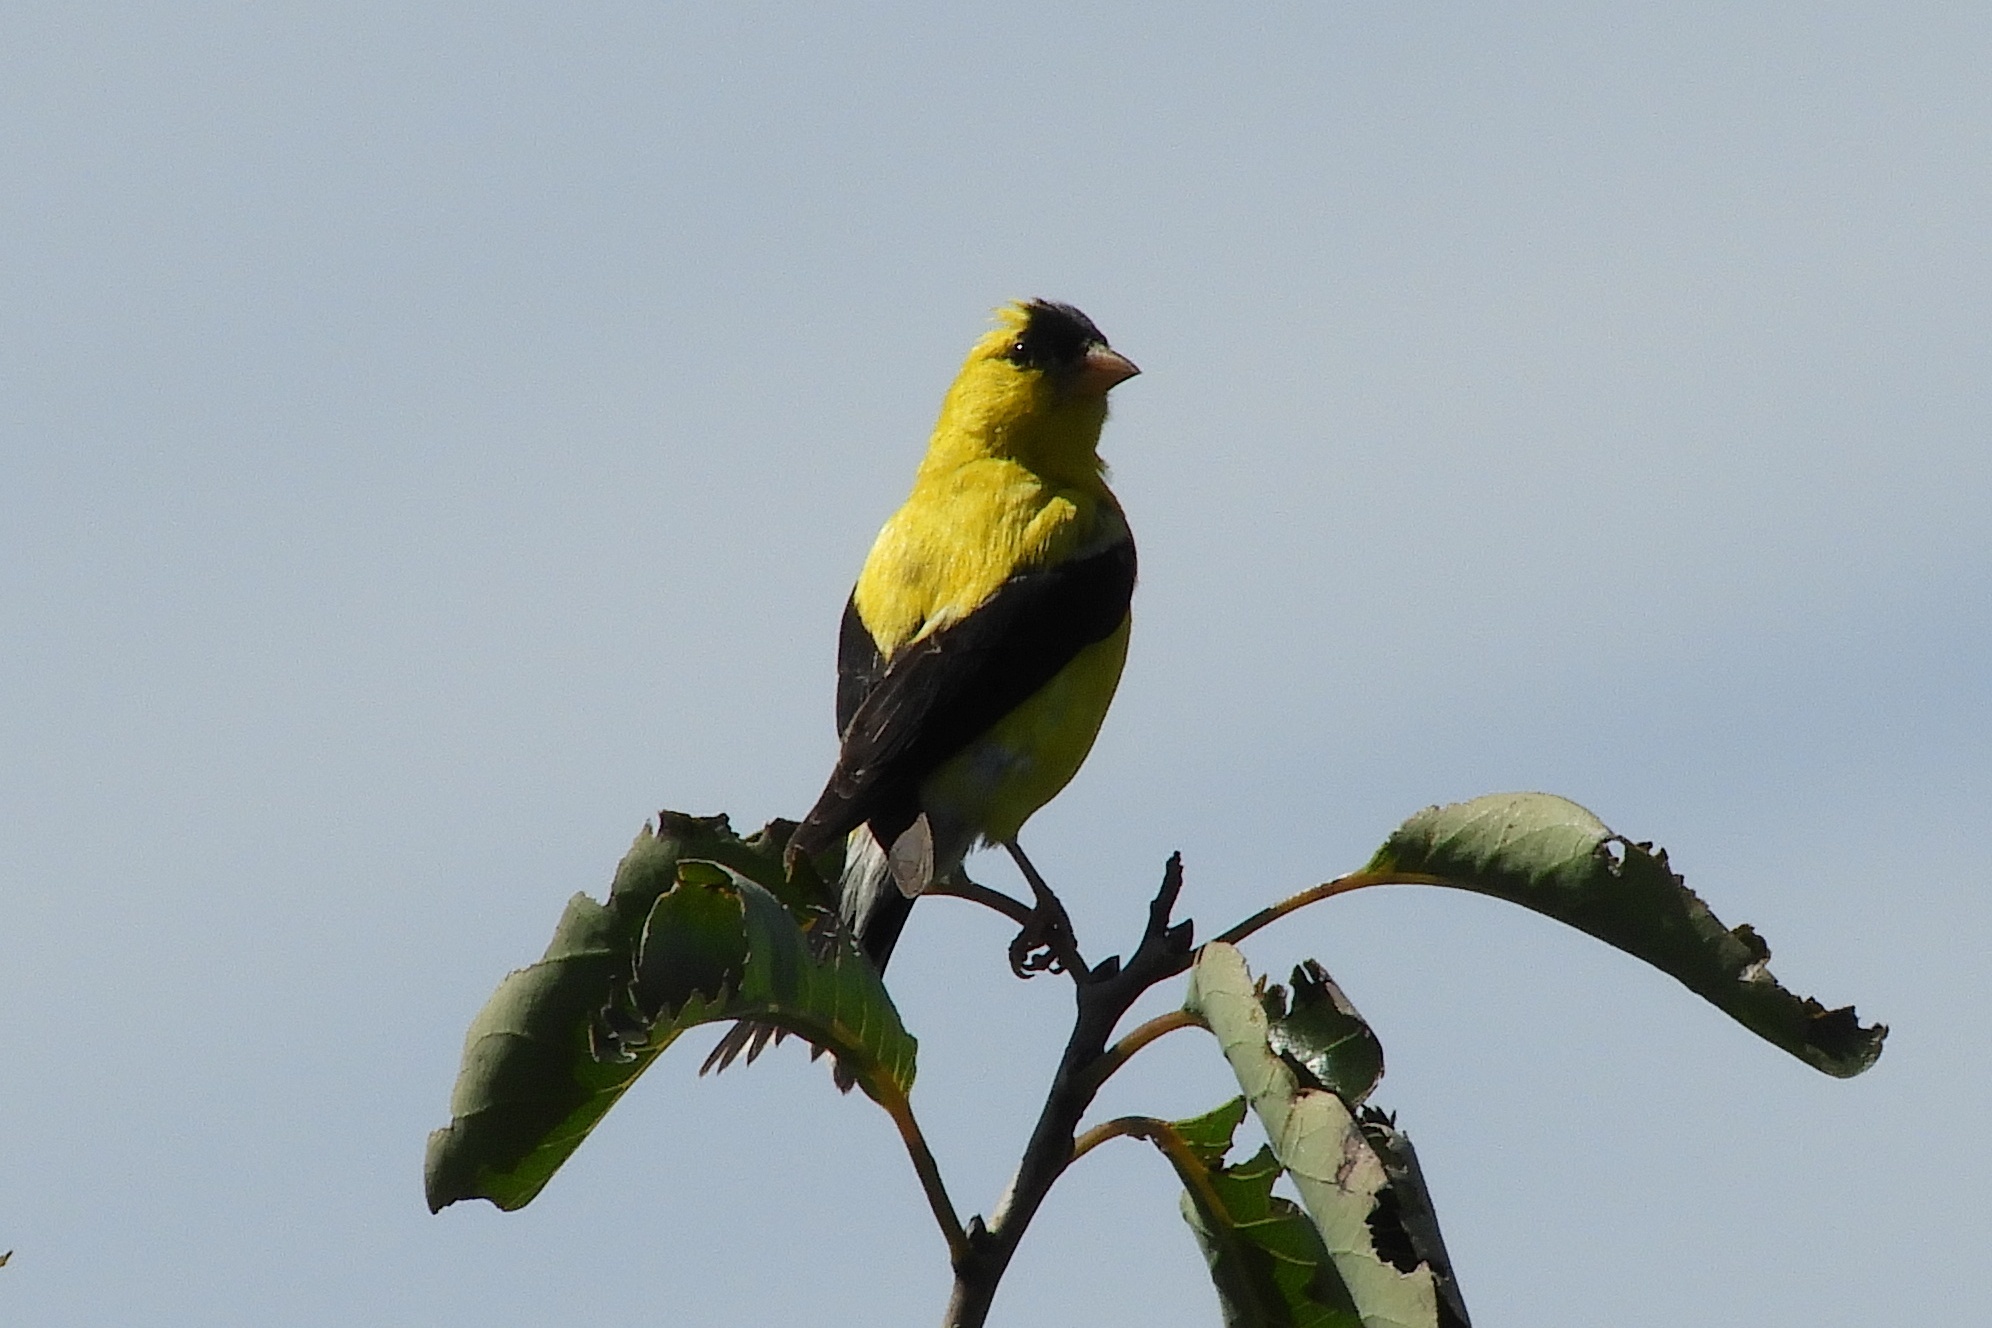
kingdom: Animalia
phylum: Chordata
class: Aves
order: Passeriformes
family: Fringillidae
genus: Spinus
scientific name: Spinus tristis
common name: American goldfinch
